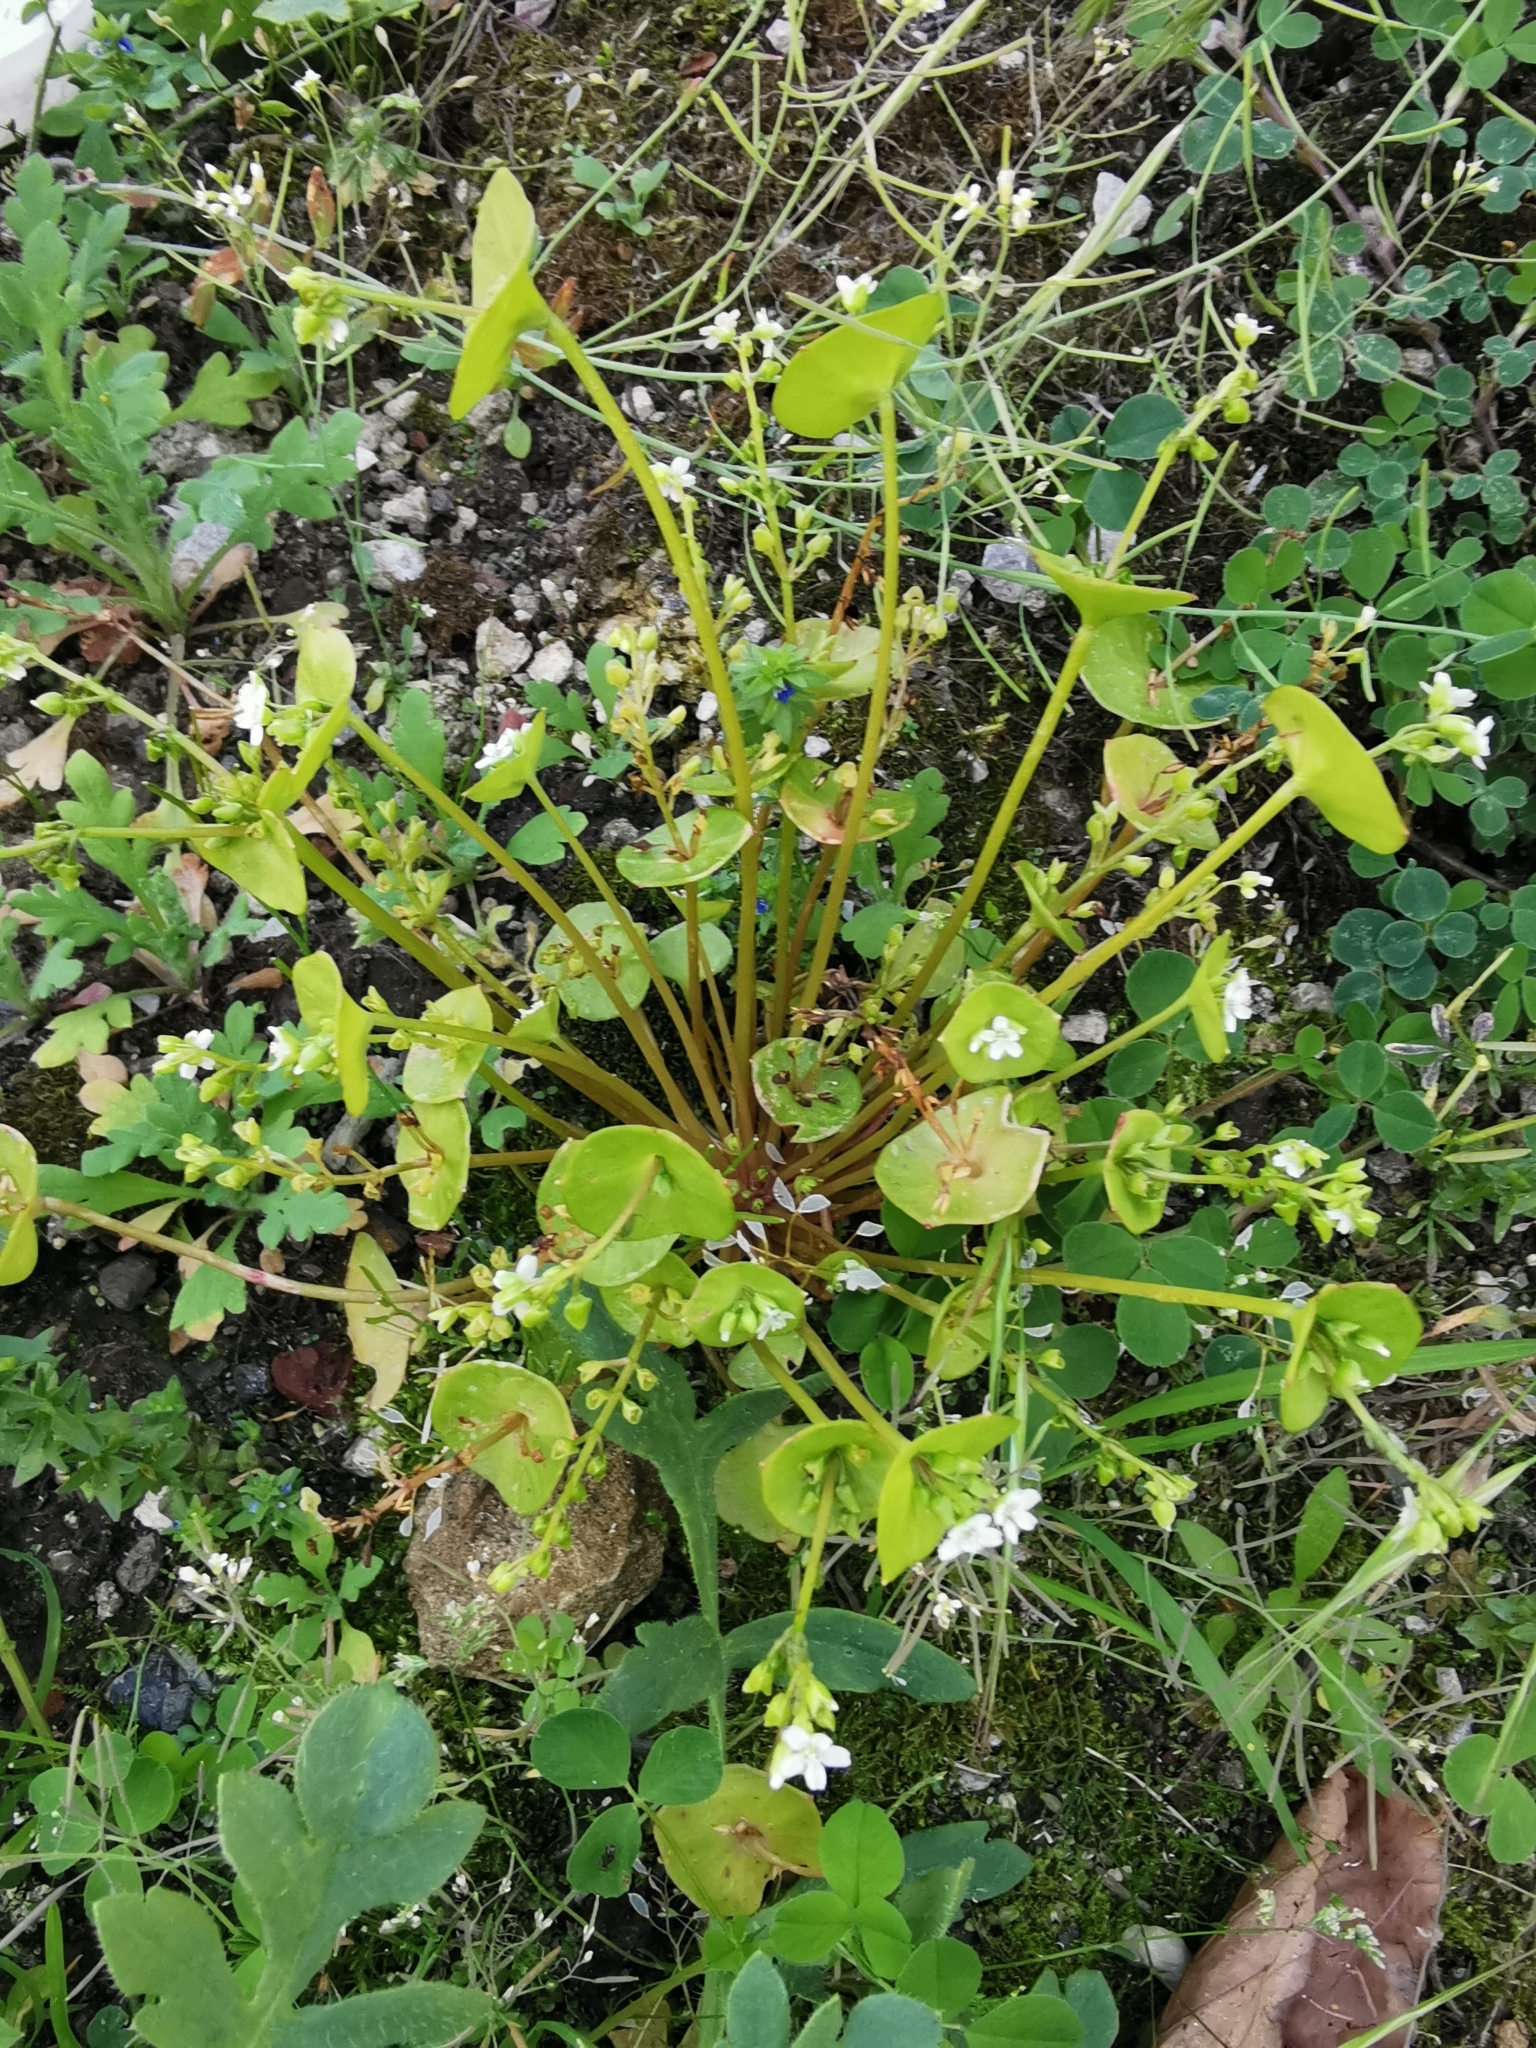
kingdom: Plantae
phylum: Tracheophyta
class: Magnoliopsida
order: Caryophyllales
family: Montiaceae
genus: Claytonia
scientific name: Claytonia perfoliata
